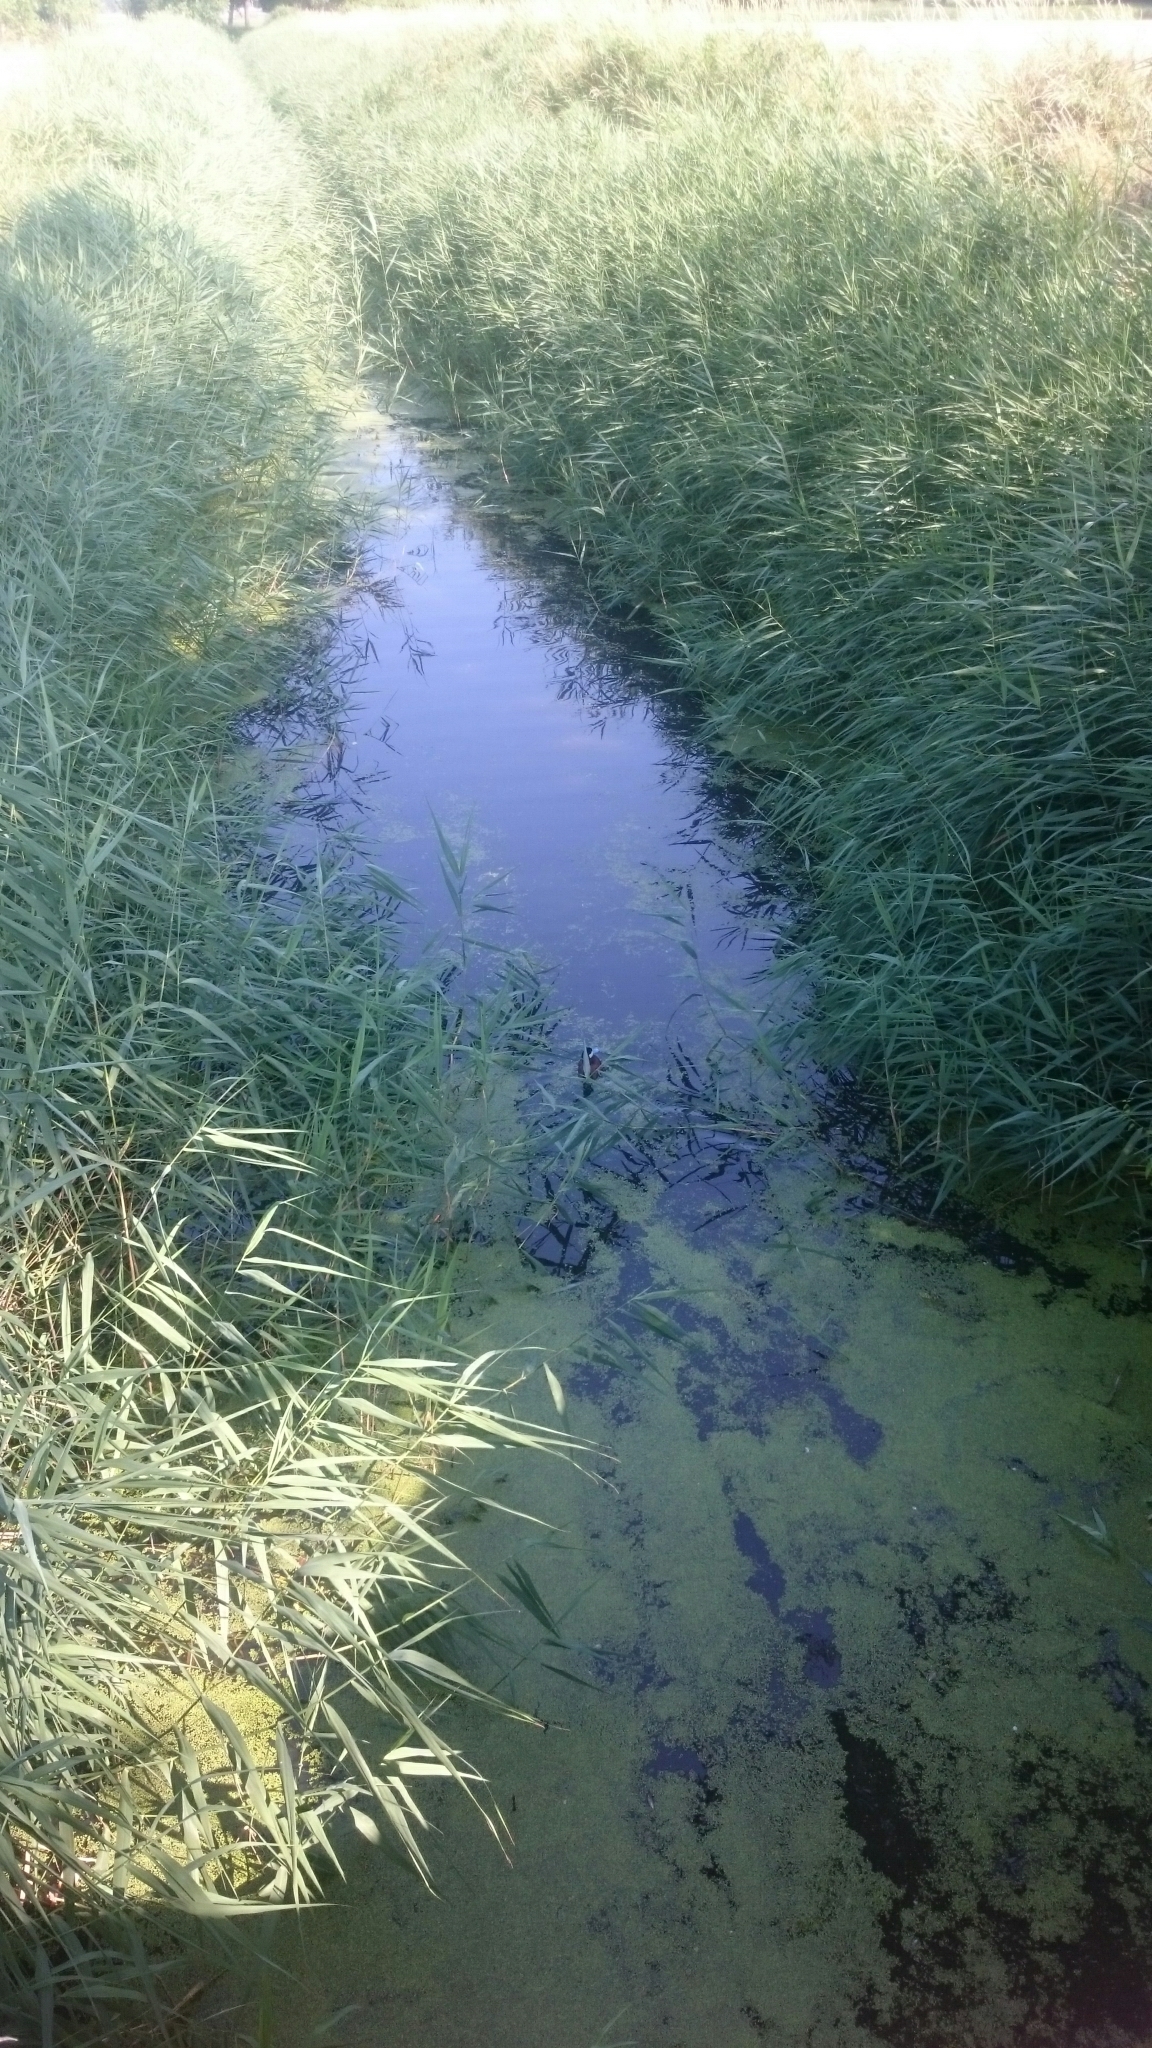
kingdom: Animalia
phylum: Chordata
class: Aves
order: Anseriformes
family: Anatidae
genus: Oxyura
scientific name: Oxyura jamaicensis
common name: Ruddy duck
